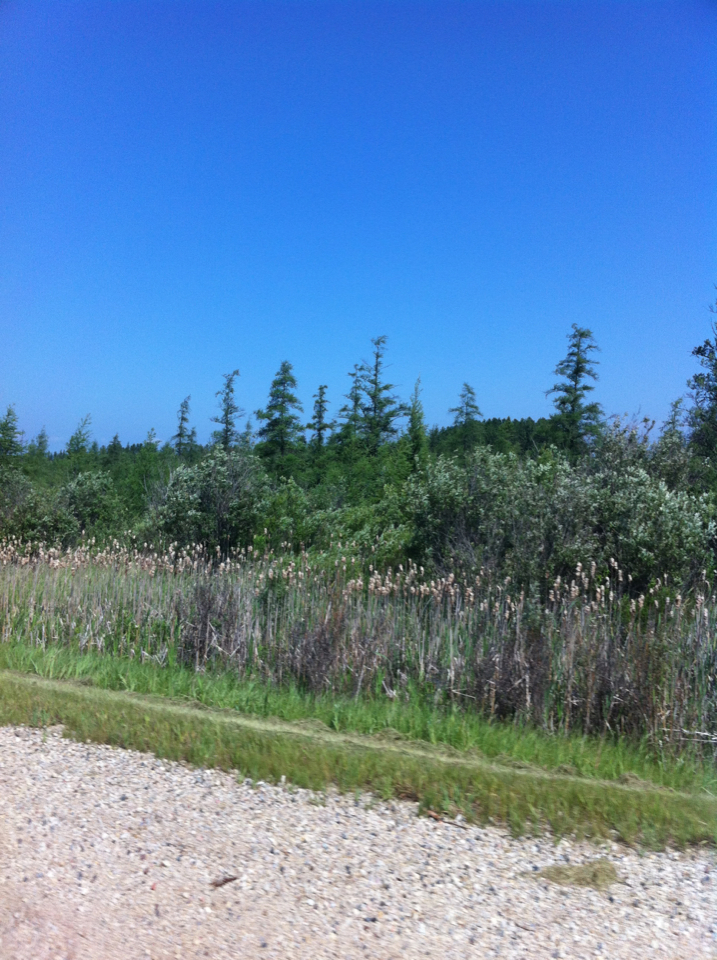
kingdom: Plantae
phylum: Tracheophyta
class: Pinopsida
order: Pinales
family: Pinaceae
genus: Larix
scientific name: Larix laricina
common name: American larch
